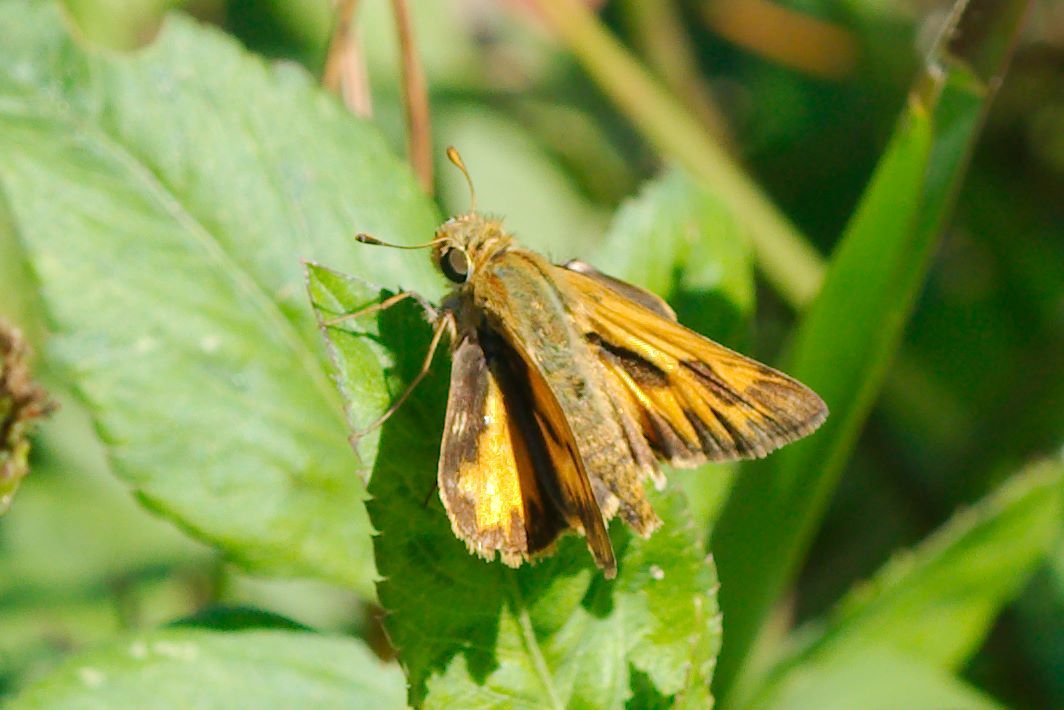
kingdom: Animalia
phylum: Arthropoda
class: Insecta
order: Lepidoptera
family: Hesperiidae
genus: Hylephila
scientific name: Hylephila phyleus
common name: Fiery skipper
